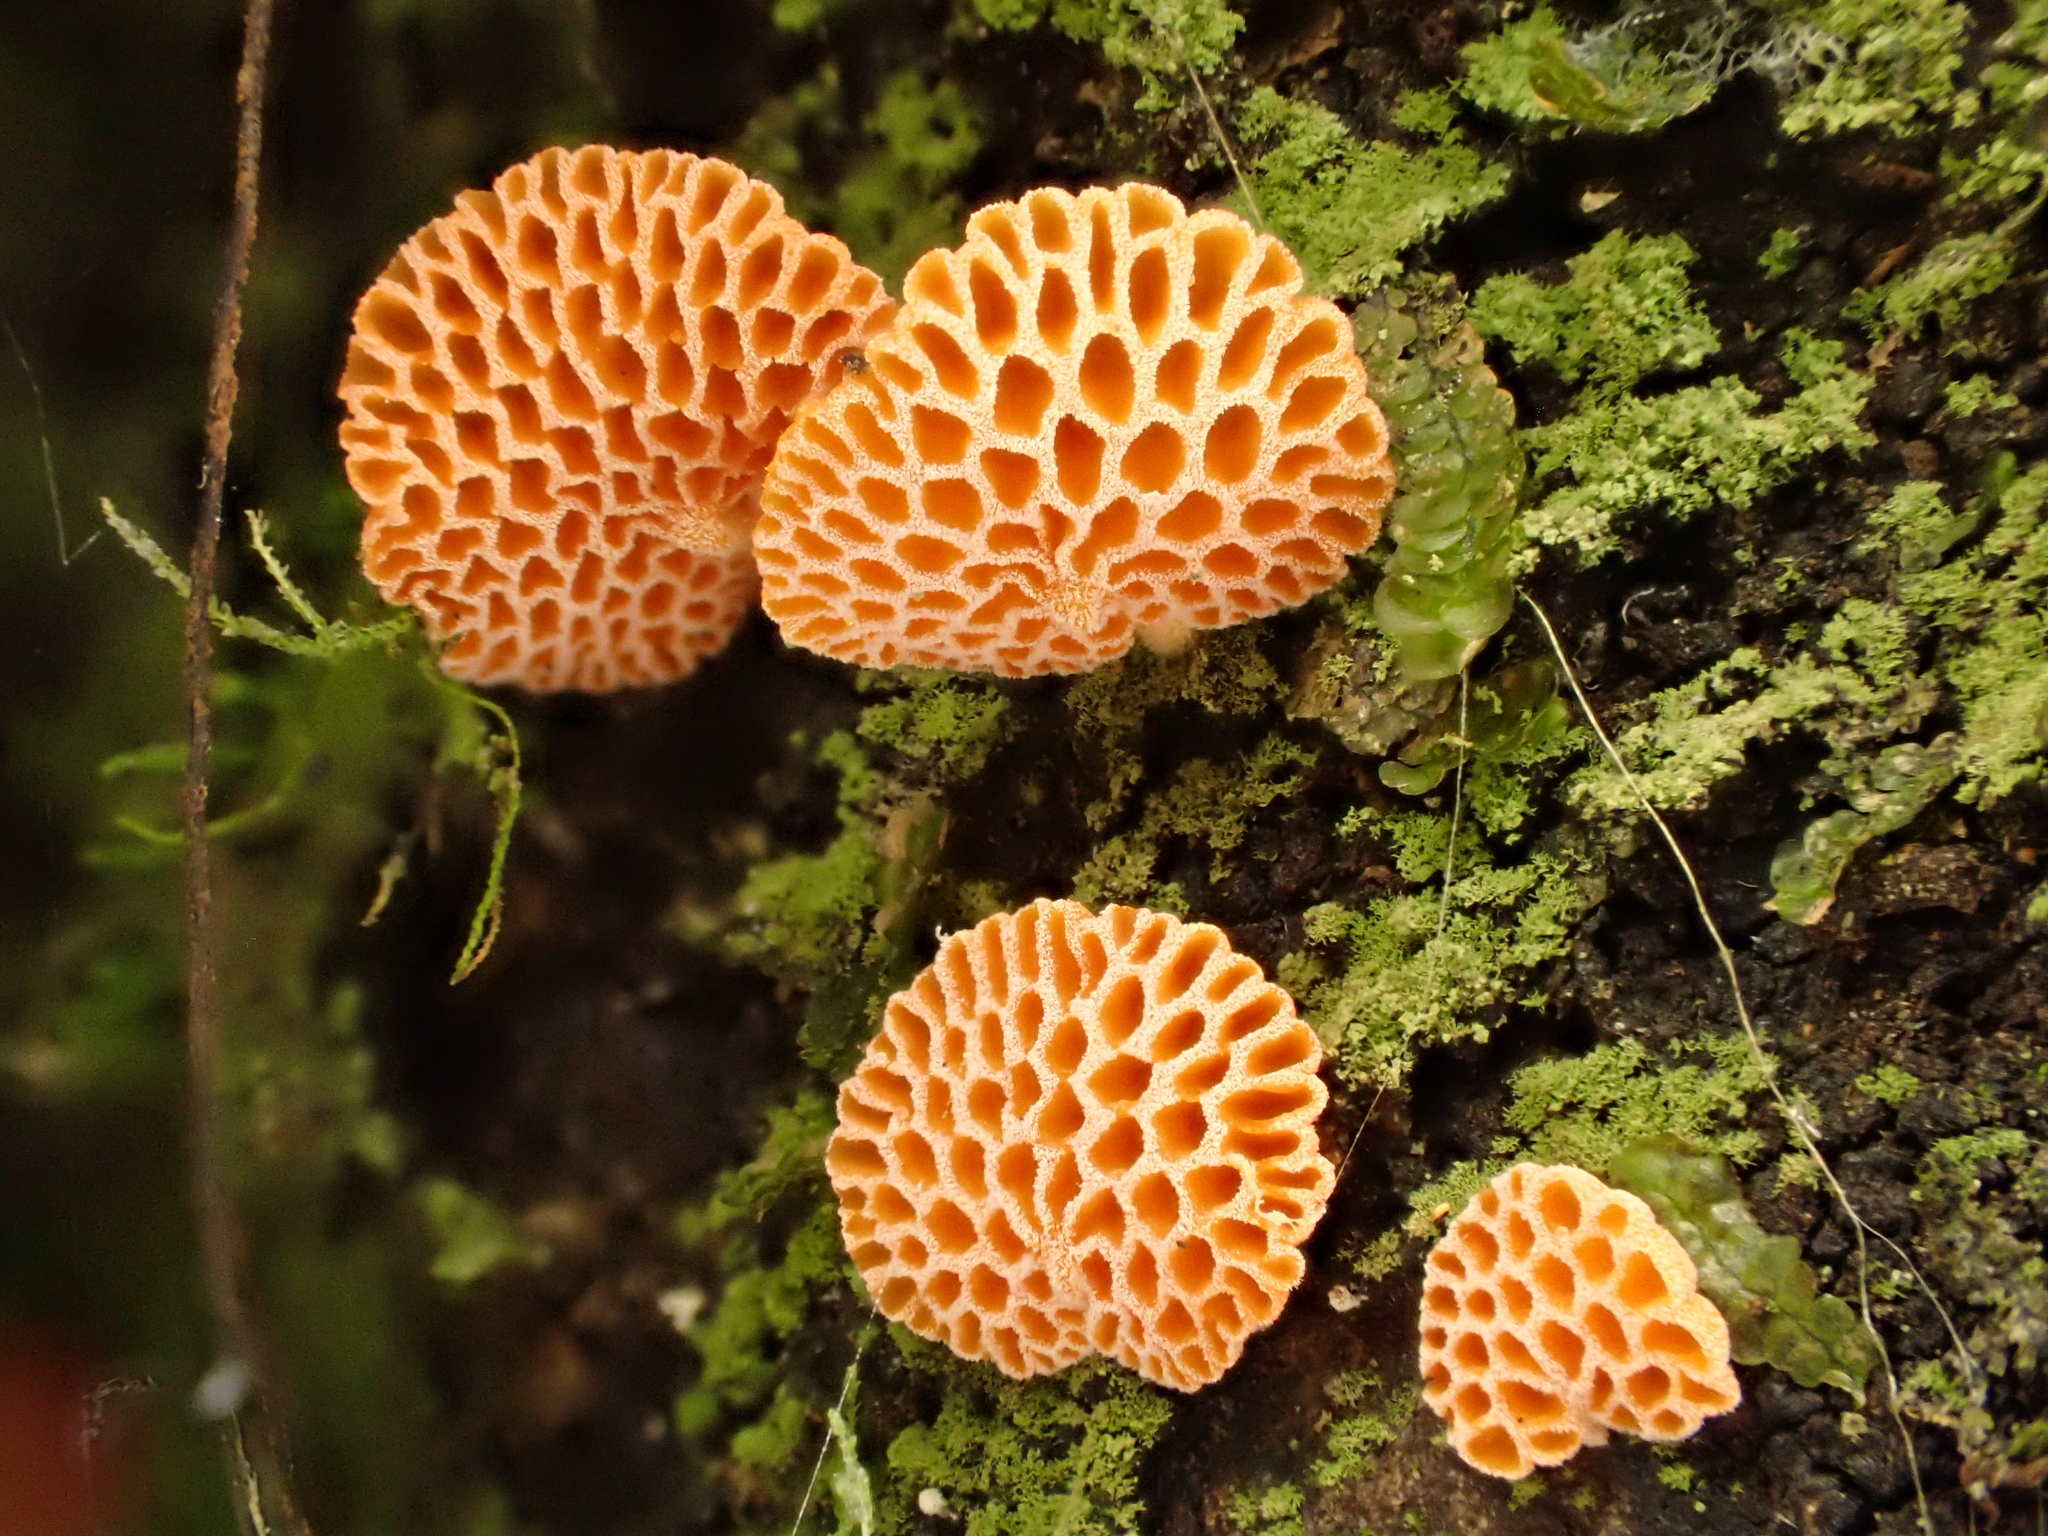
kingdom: Fungi
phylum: Basidiomycota
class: Agaricomycetes
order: Agaricales
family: Mycenaceae
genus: Favolaschia
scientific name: Favolaschia claudopus
